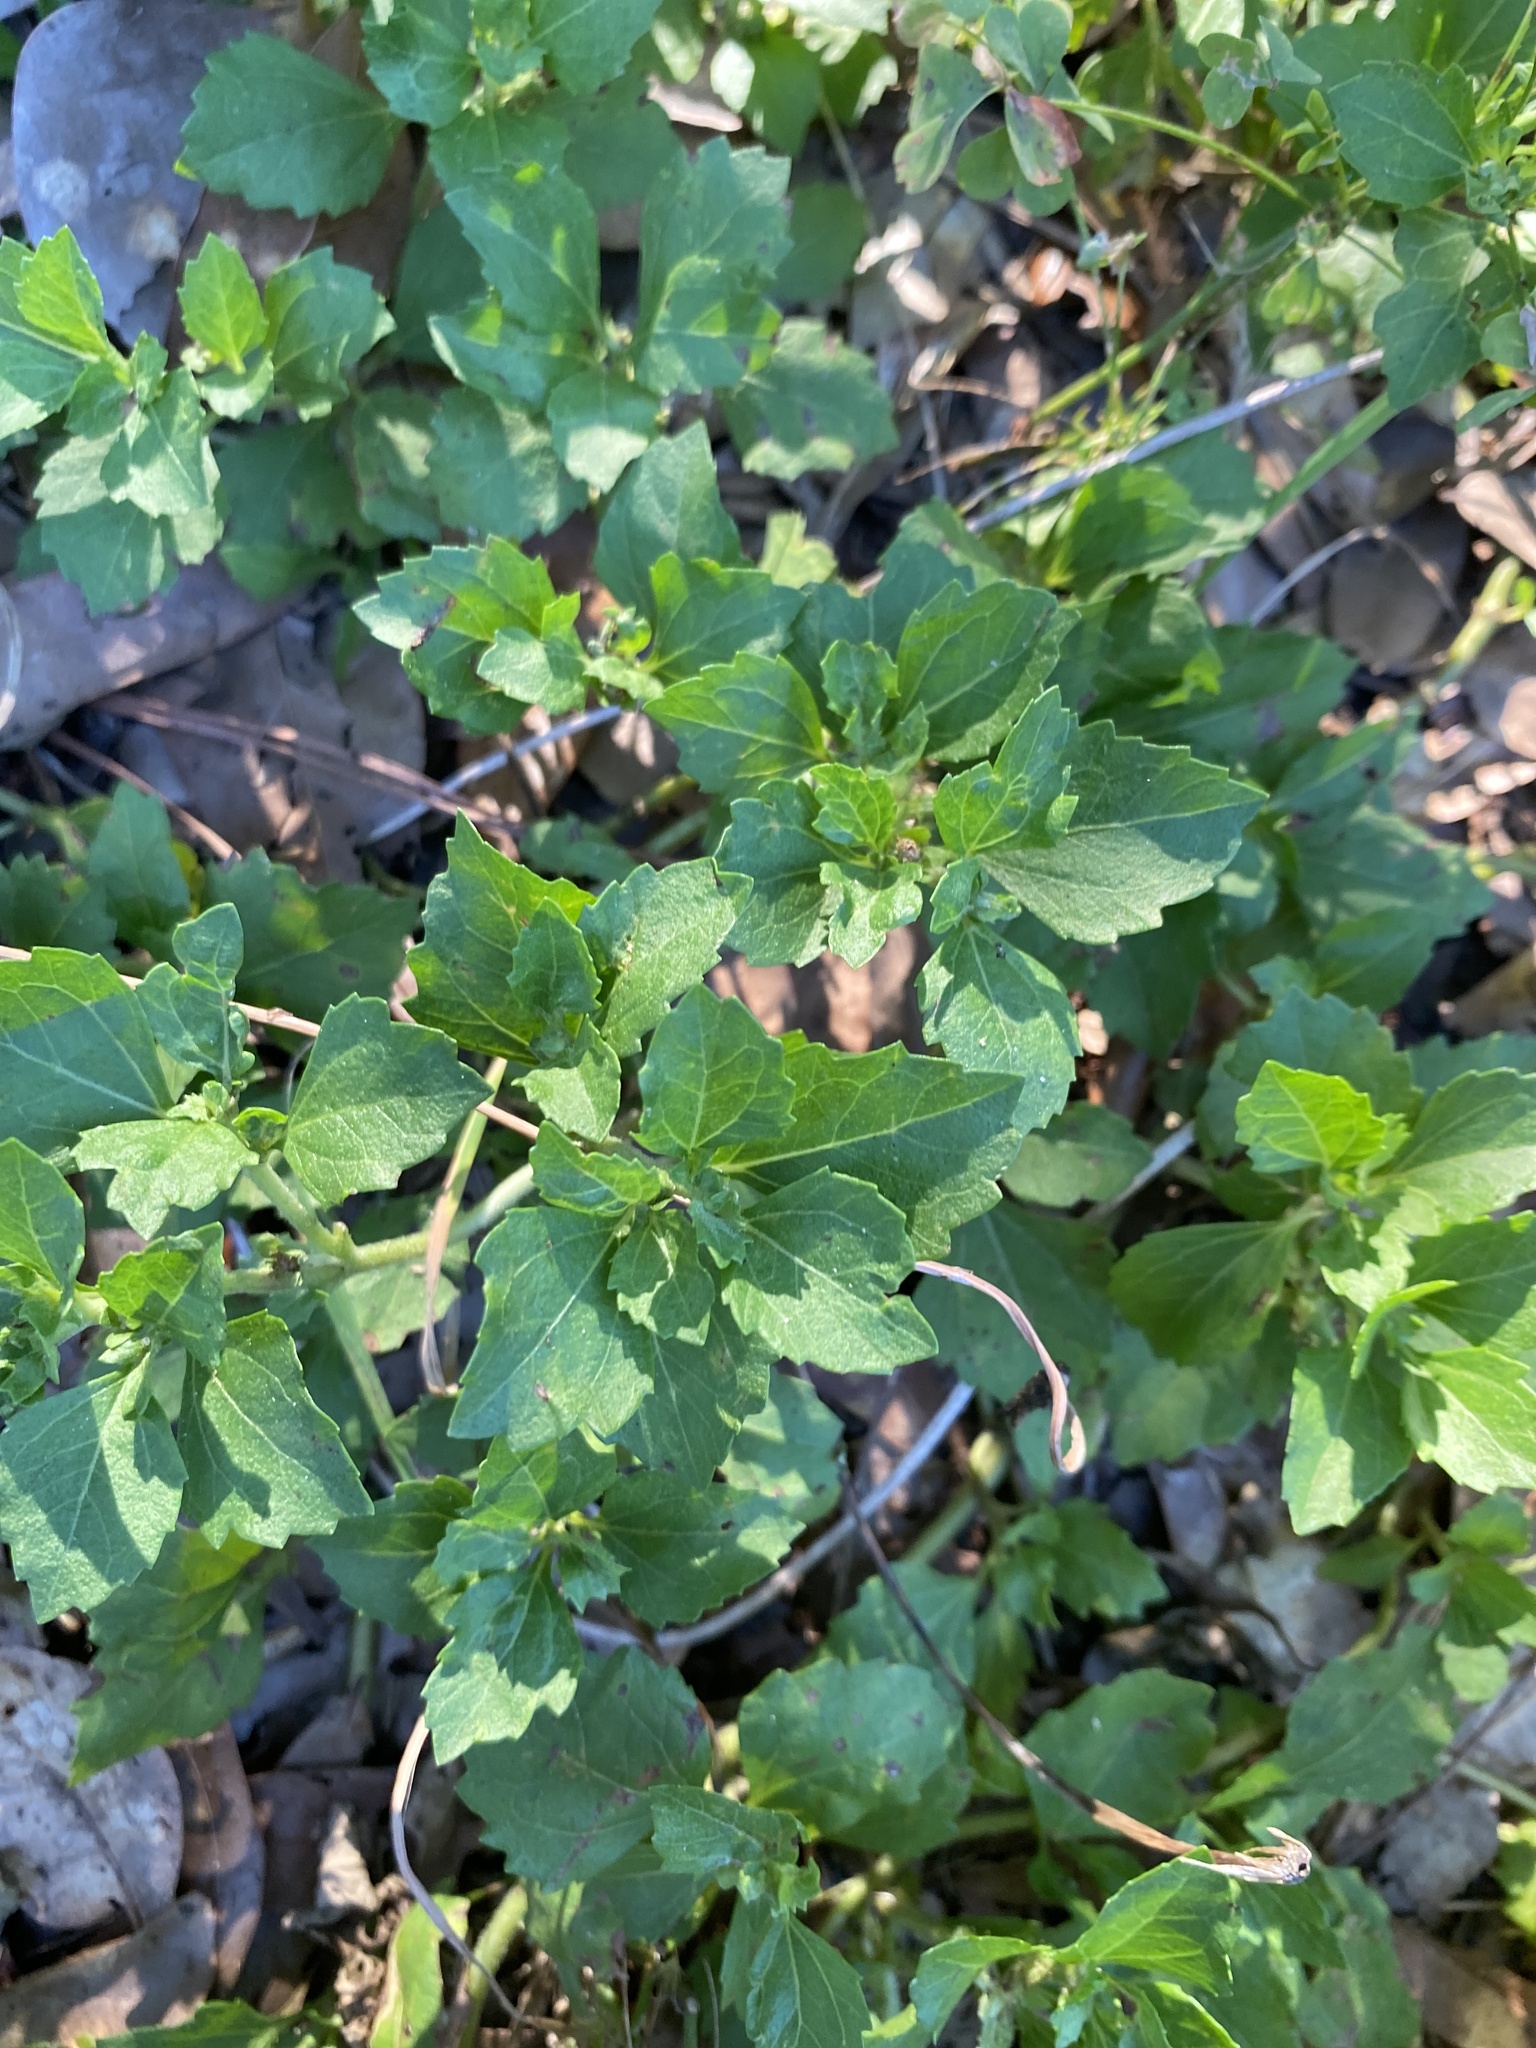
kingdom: Plantae
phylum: Tracheophyta
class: Magnoliopsida
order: Asterales
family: Asteraceae
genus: Acanthospermum
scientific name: Acanthospermum australe
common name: Paraguayan starbur
